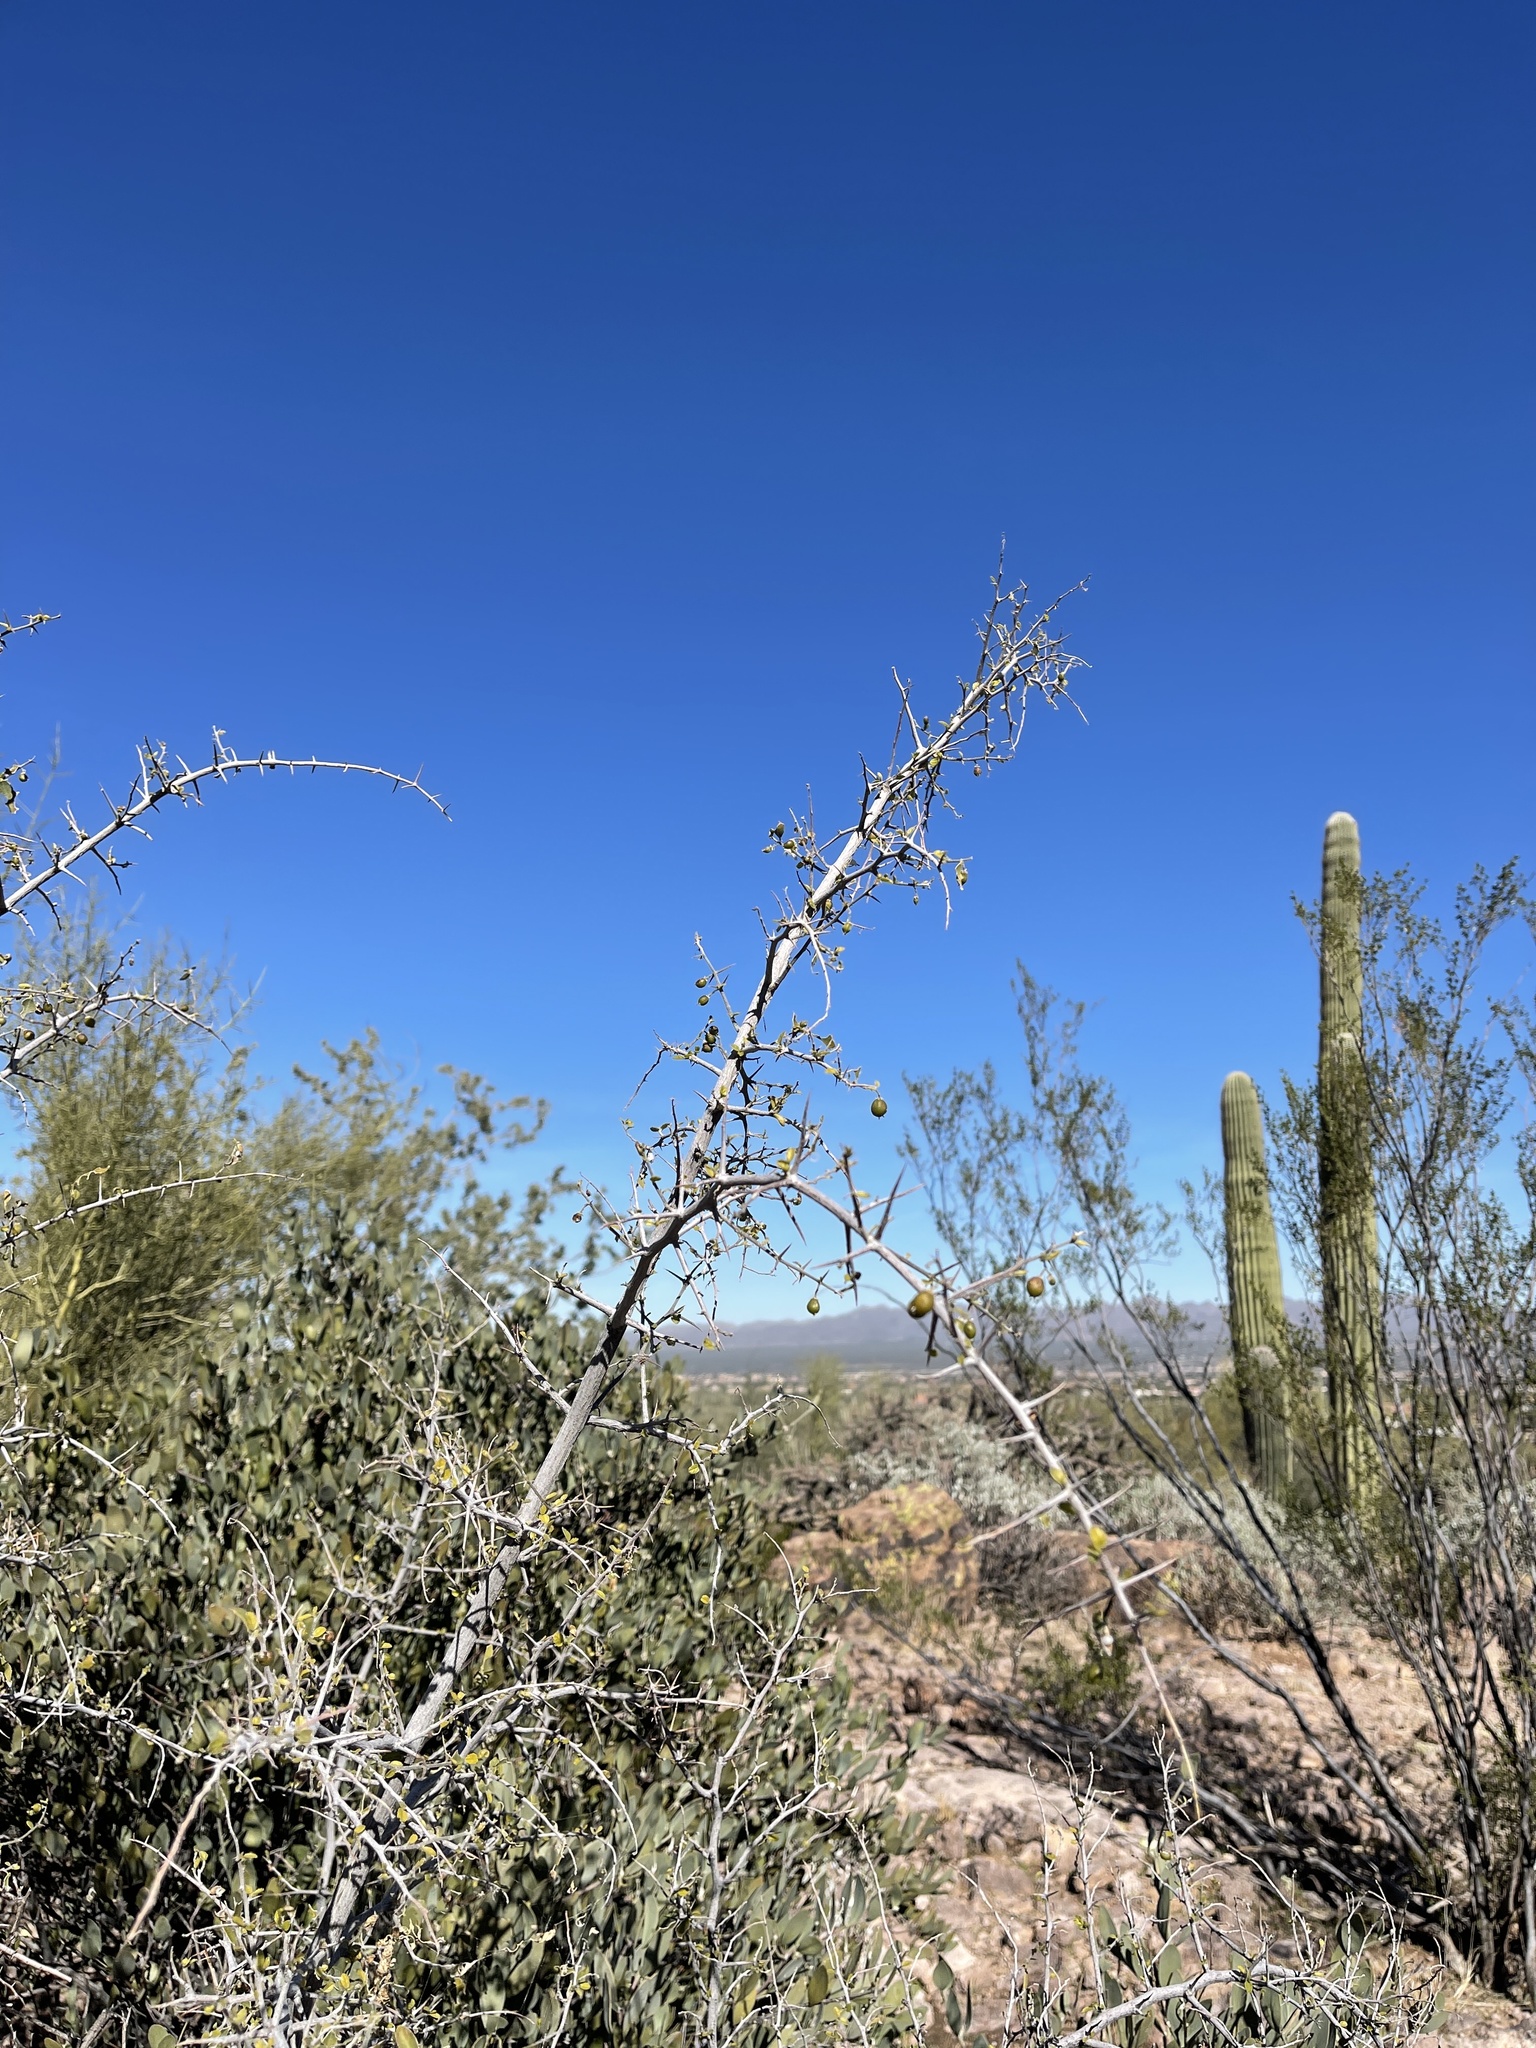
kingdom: Plantae
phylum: Tracheophyta
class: Magnoliopsida
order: Rosales
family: Rhamnaceae
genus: Sarcomphalus
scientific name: Sarcomphalus obtusifolius
